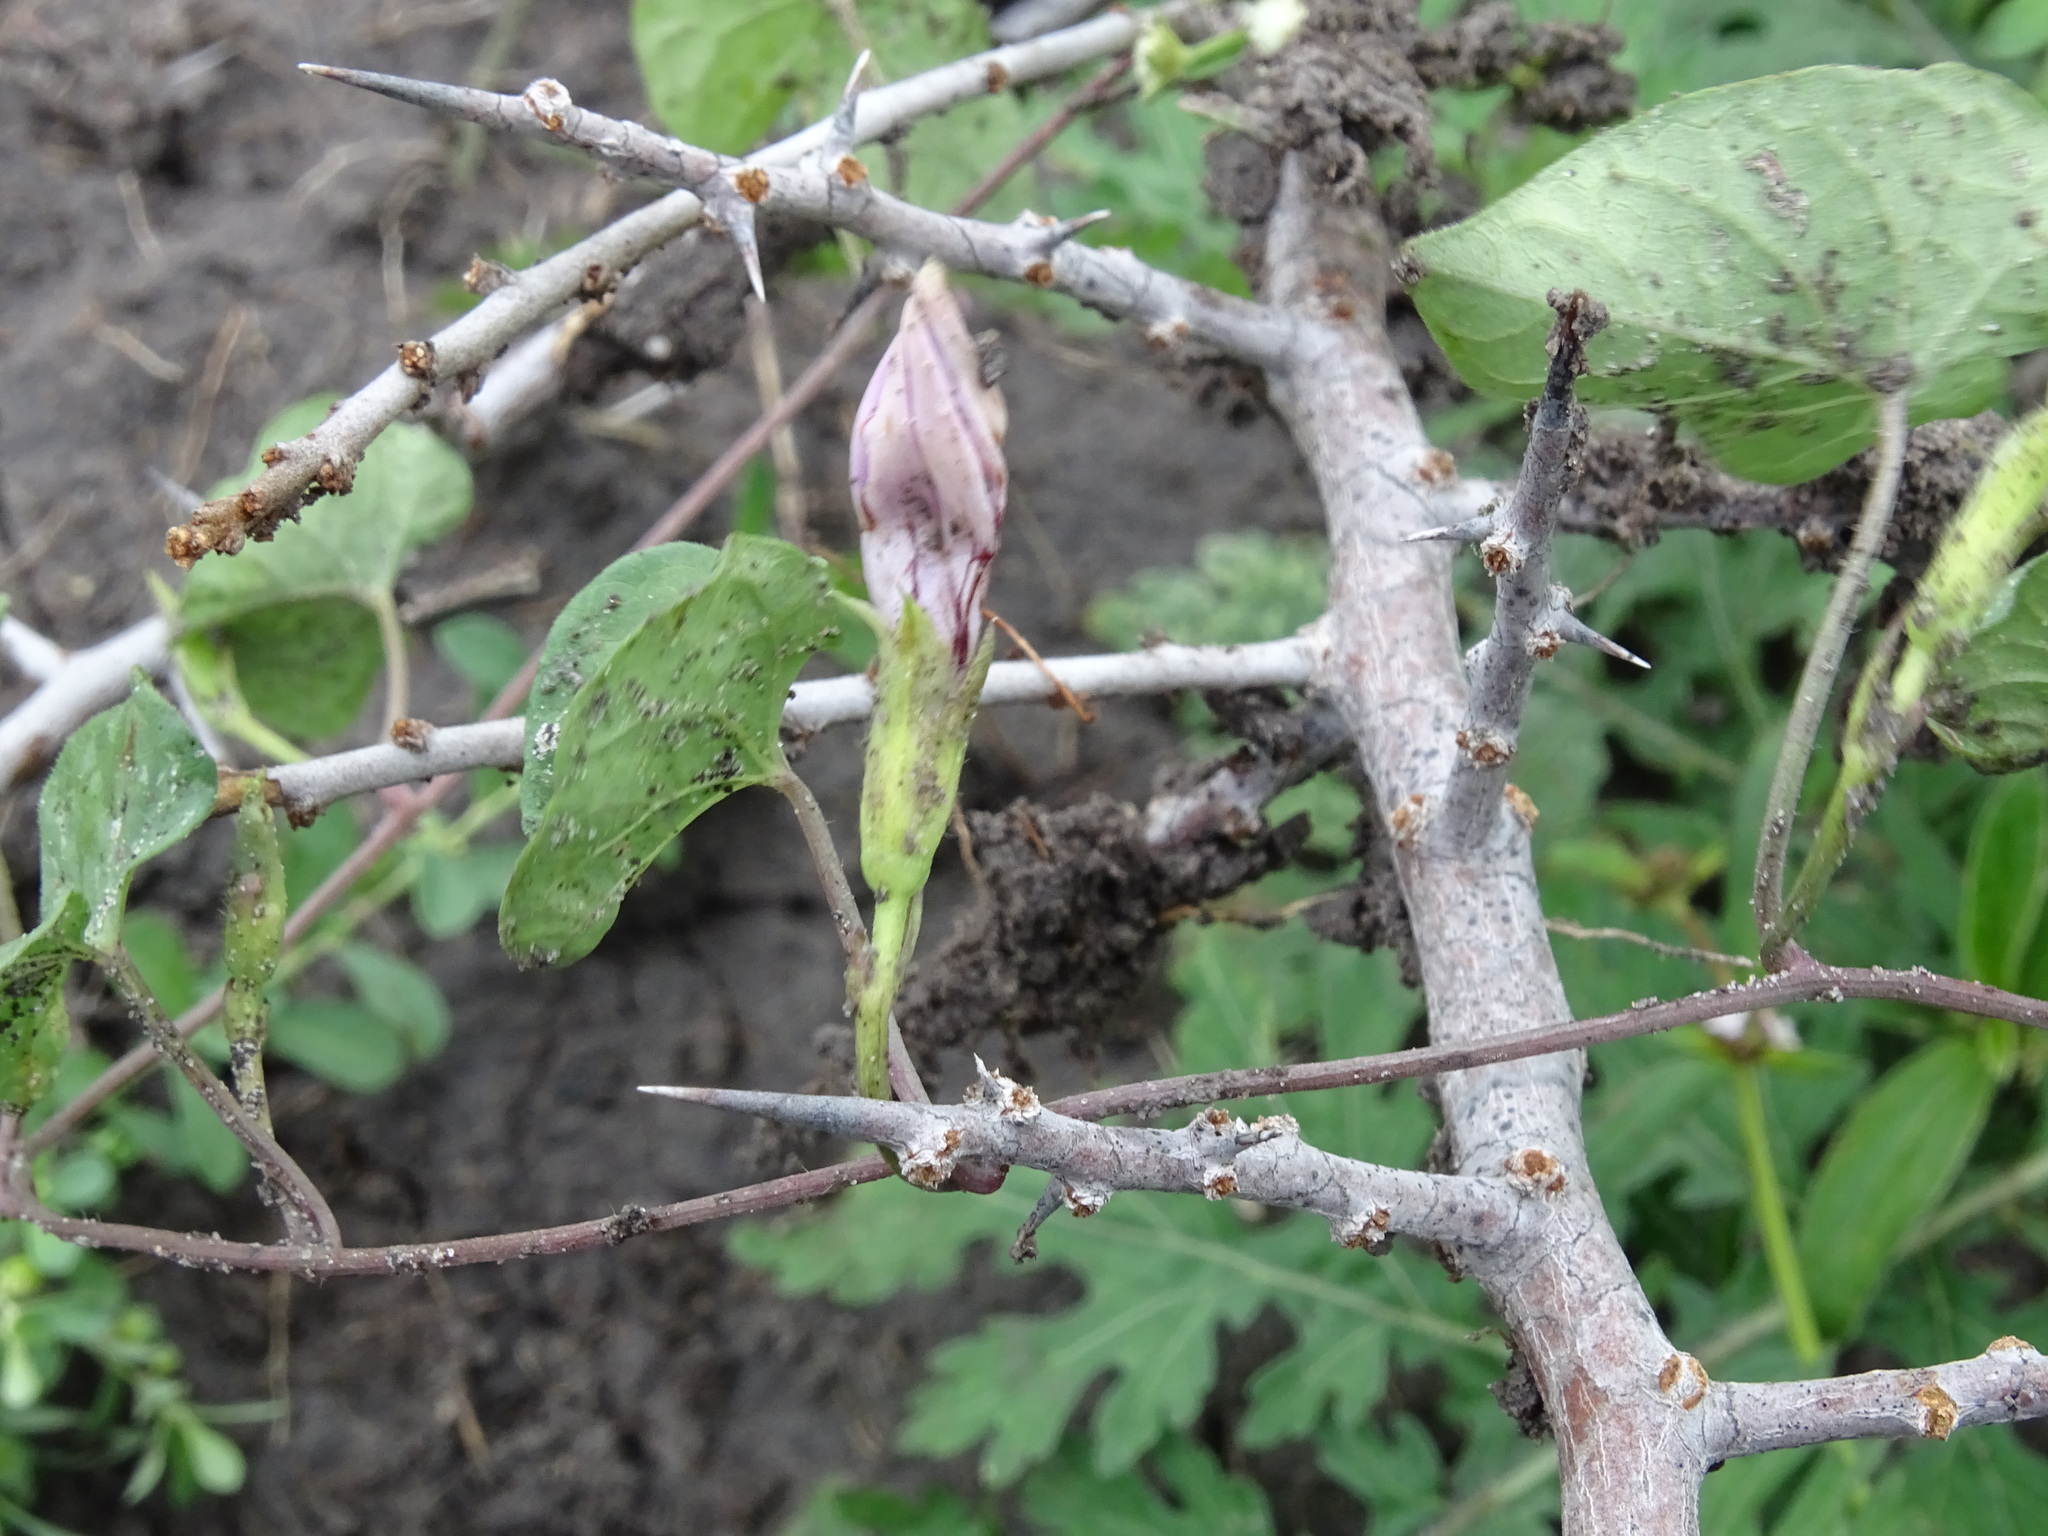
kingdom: Plantae
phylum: Tracheophyta
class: Magnoliopsida
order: Solanales
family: Convolvulaceae
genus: Ipomoea
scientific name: Ipomoea cordatotriloba
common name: Cotton morning glory
